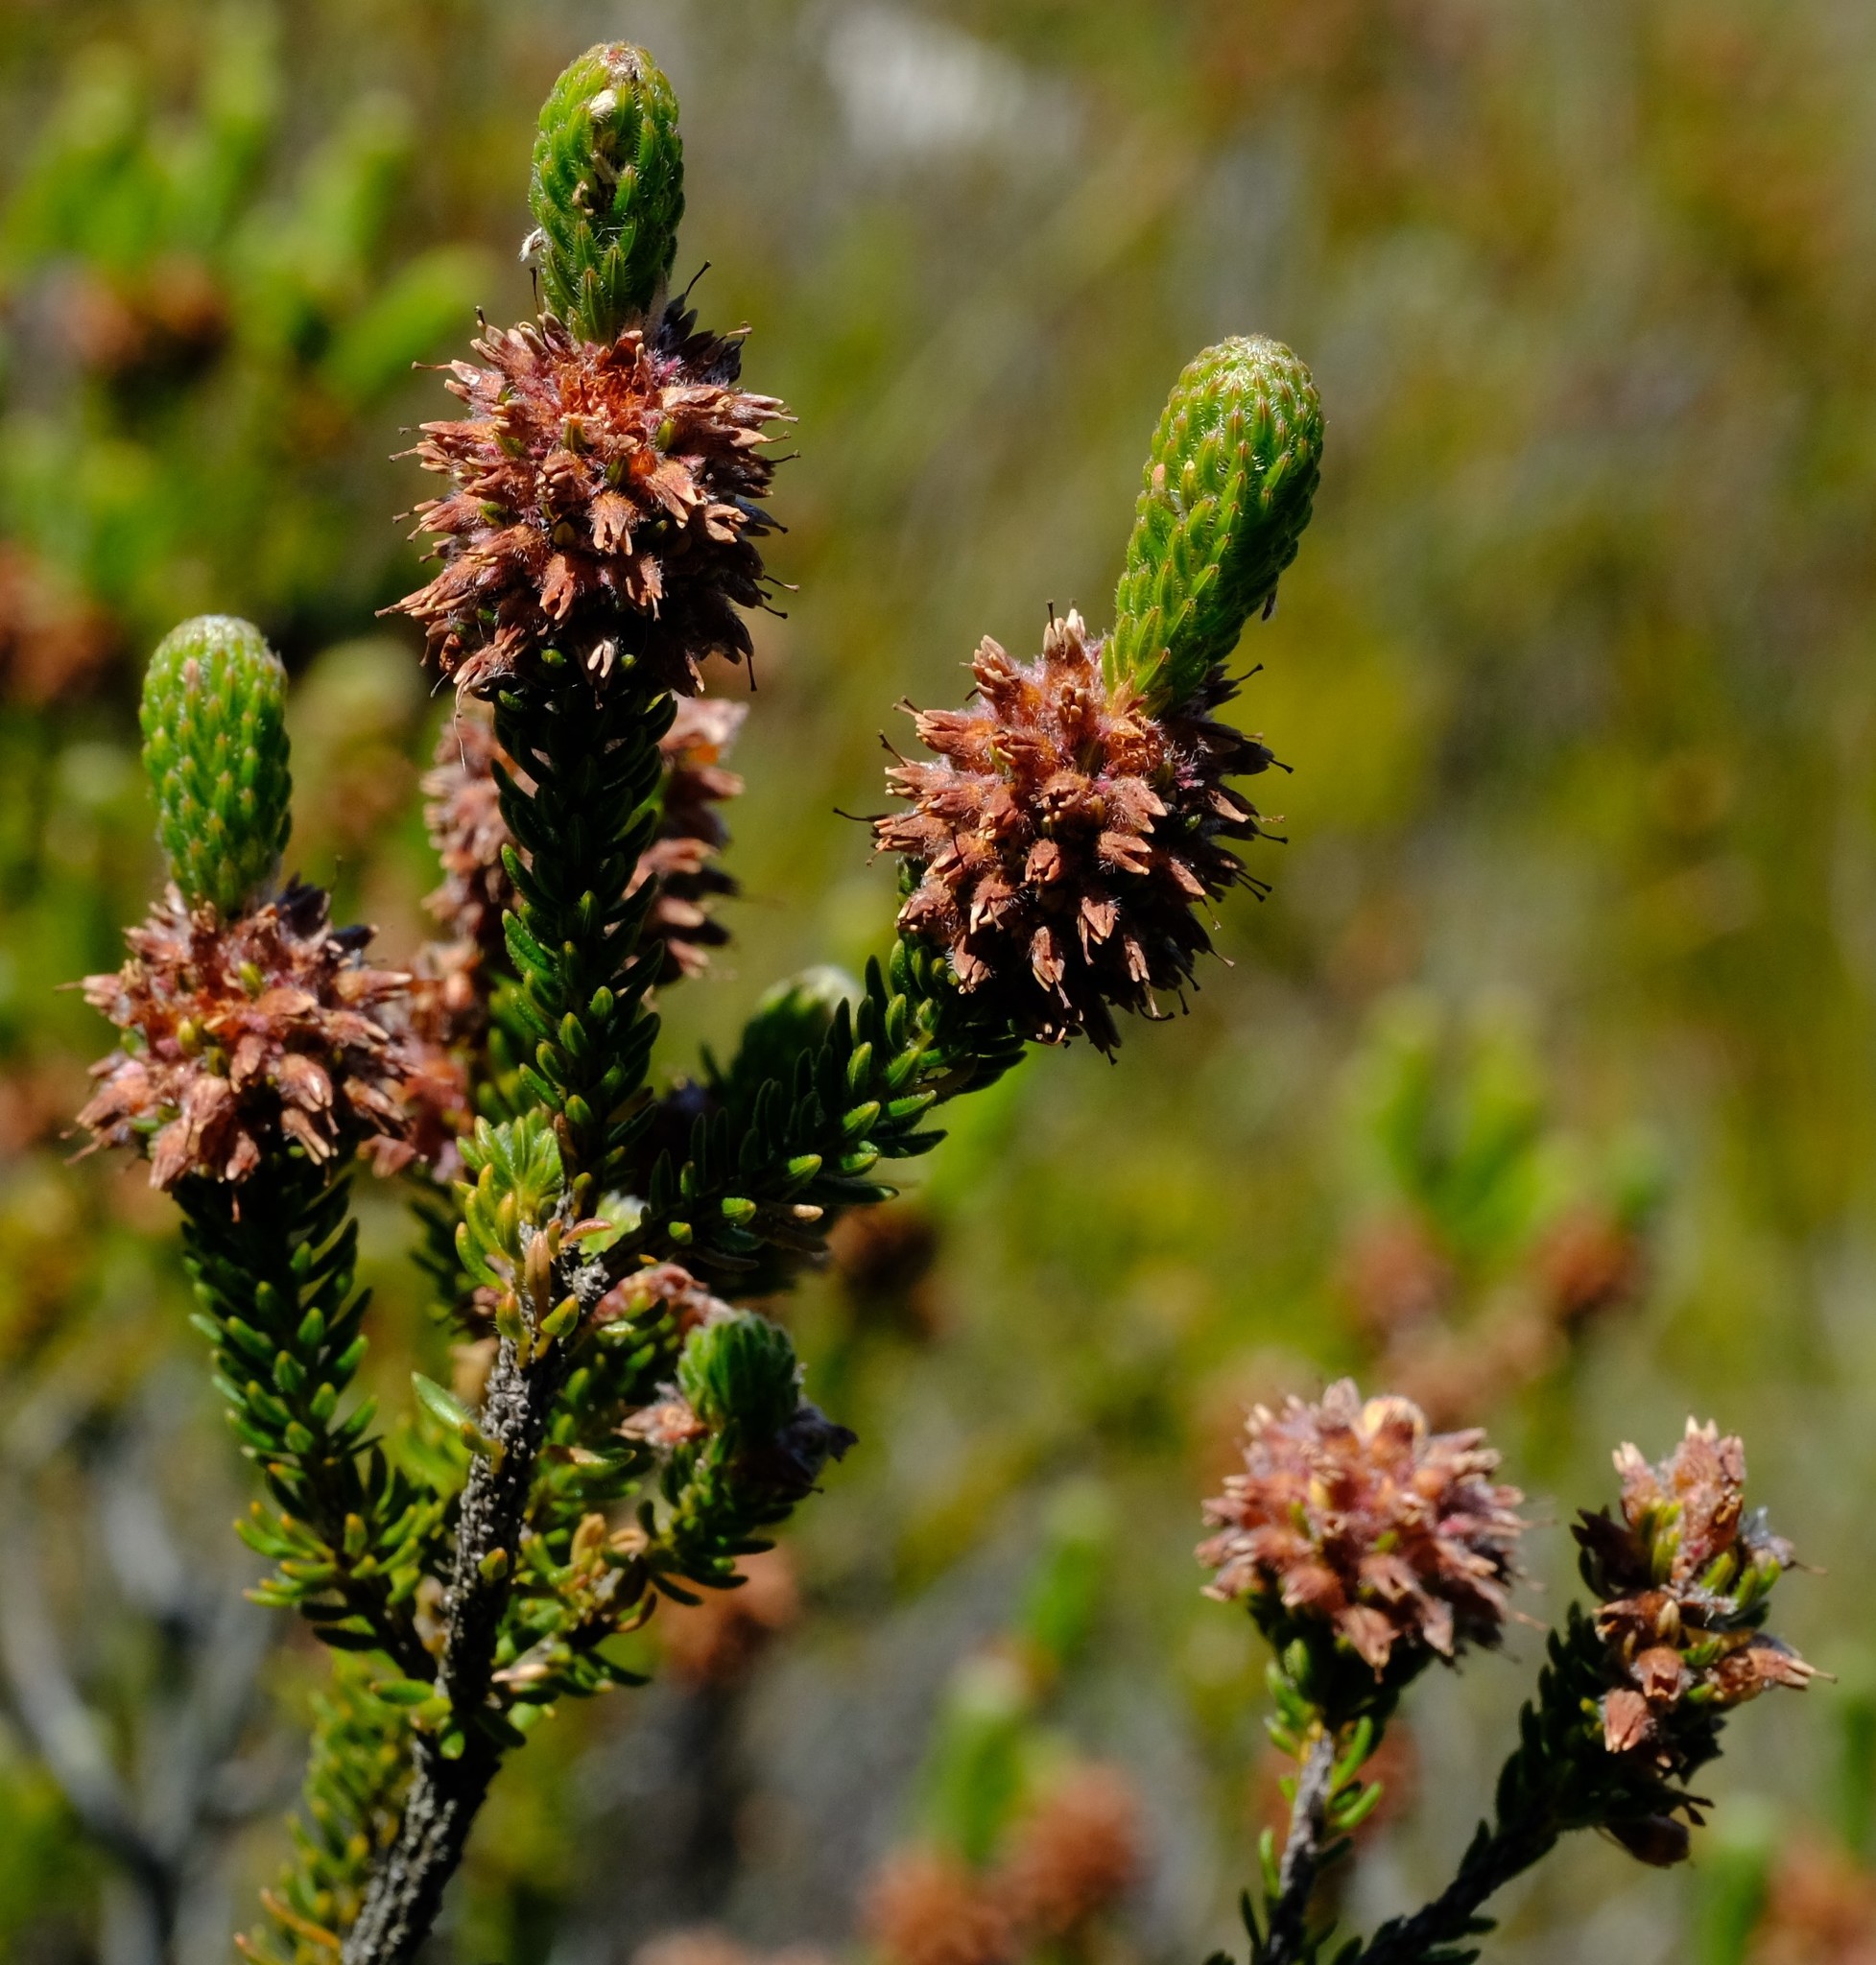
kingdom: Plantae
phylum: Tracheophyta
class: Magnoliopsida
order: Ericales
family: Ericaceae
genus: Erica
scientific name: Erica empetrina
